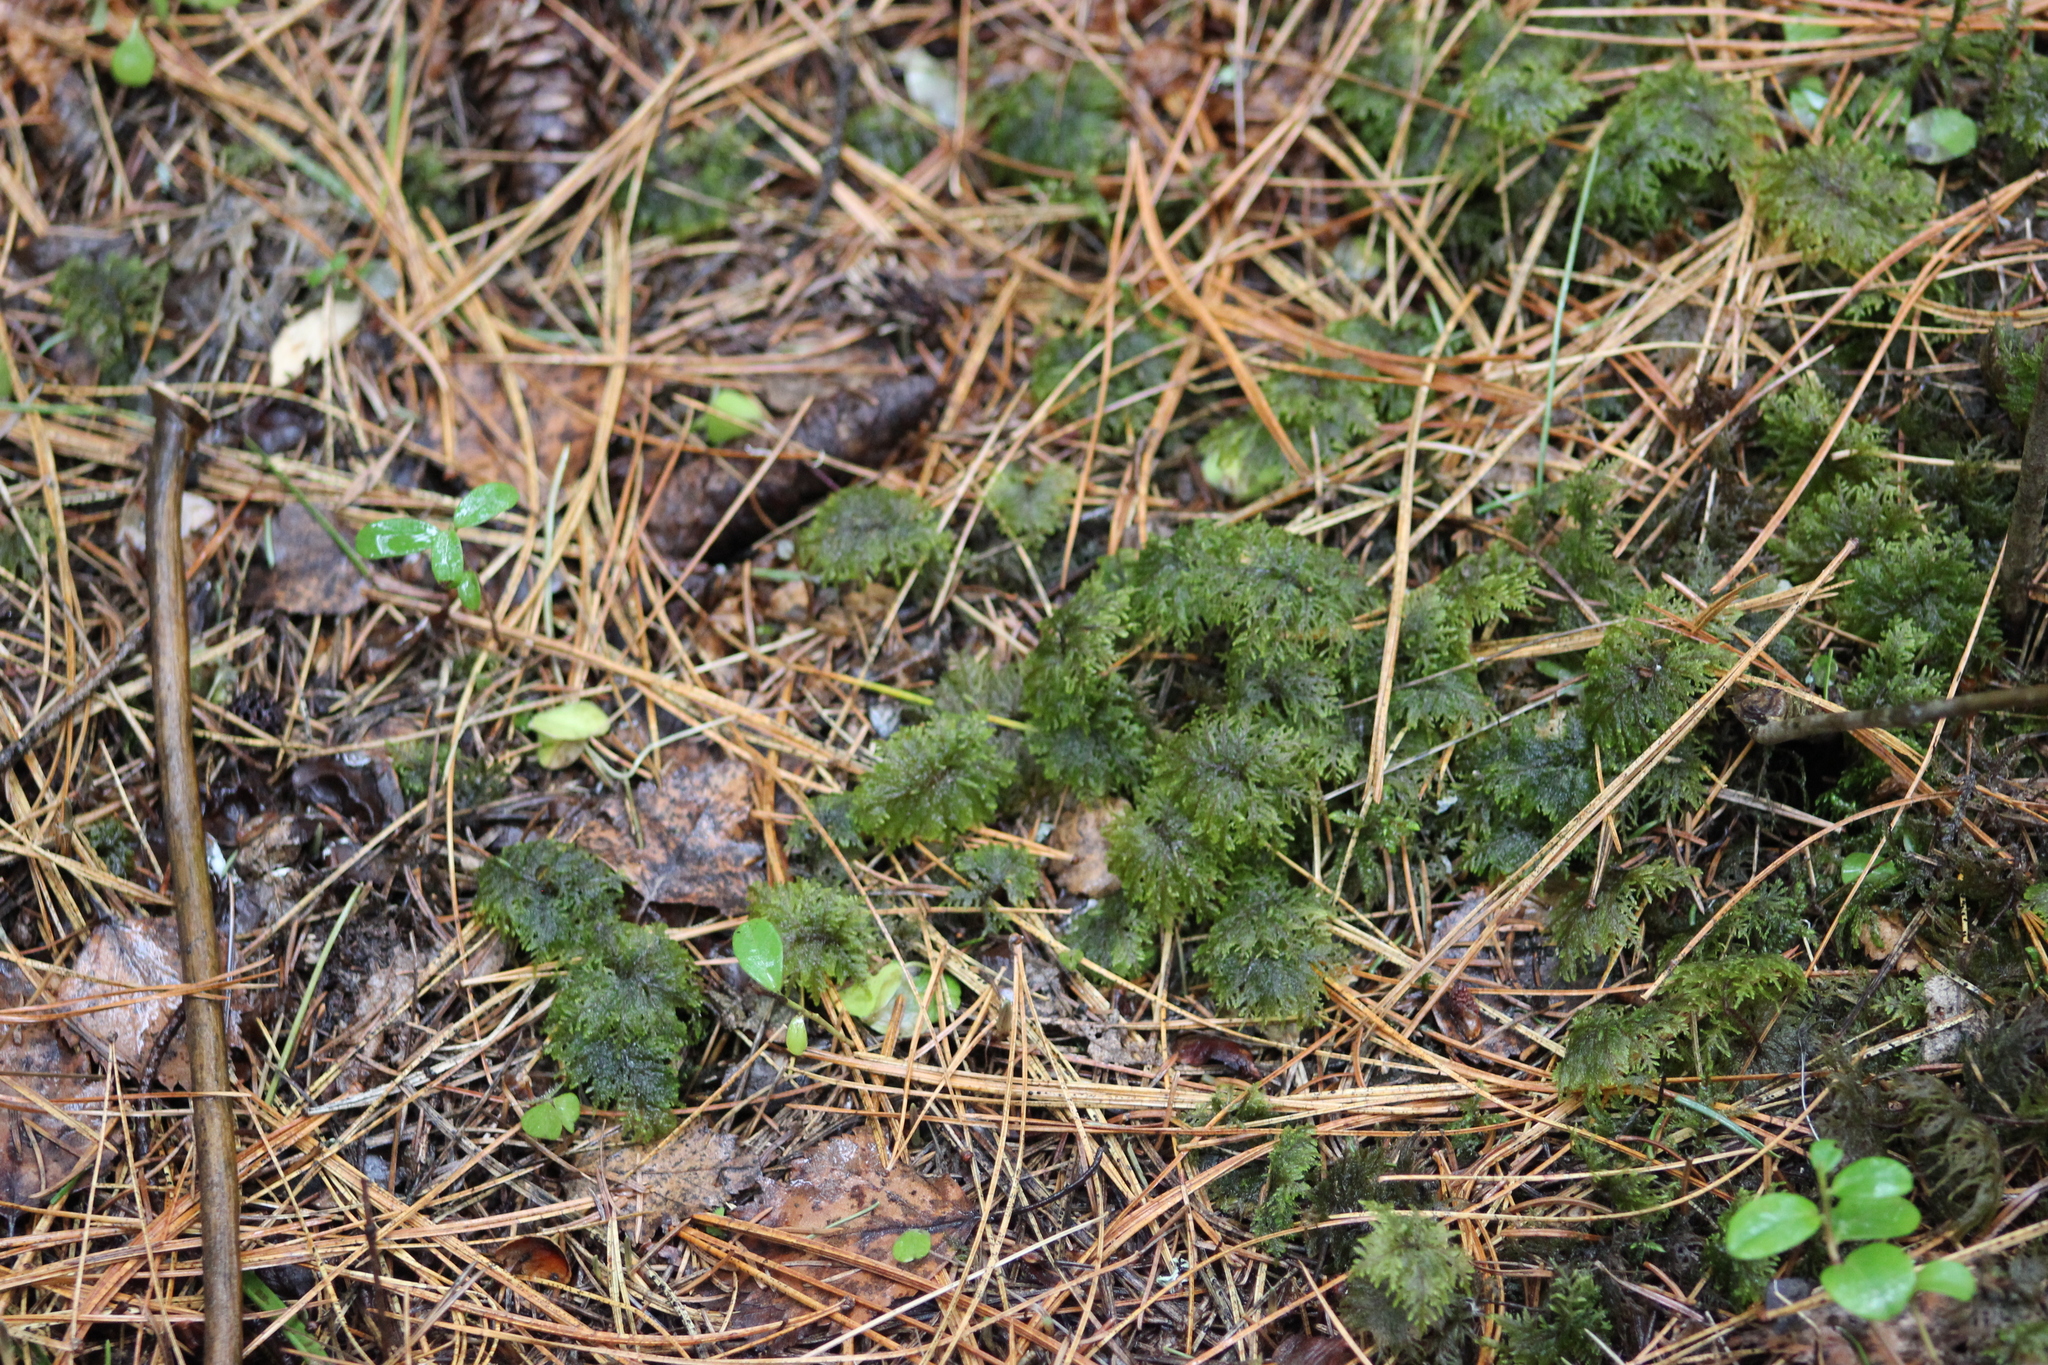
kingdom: Plantae
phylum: Bryophyta
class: Bryopsida
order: Hypnales
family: Hylocomiaceae
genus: Hylocomium
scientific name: Hylocomium splendens
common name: Stairstep moss
